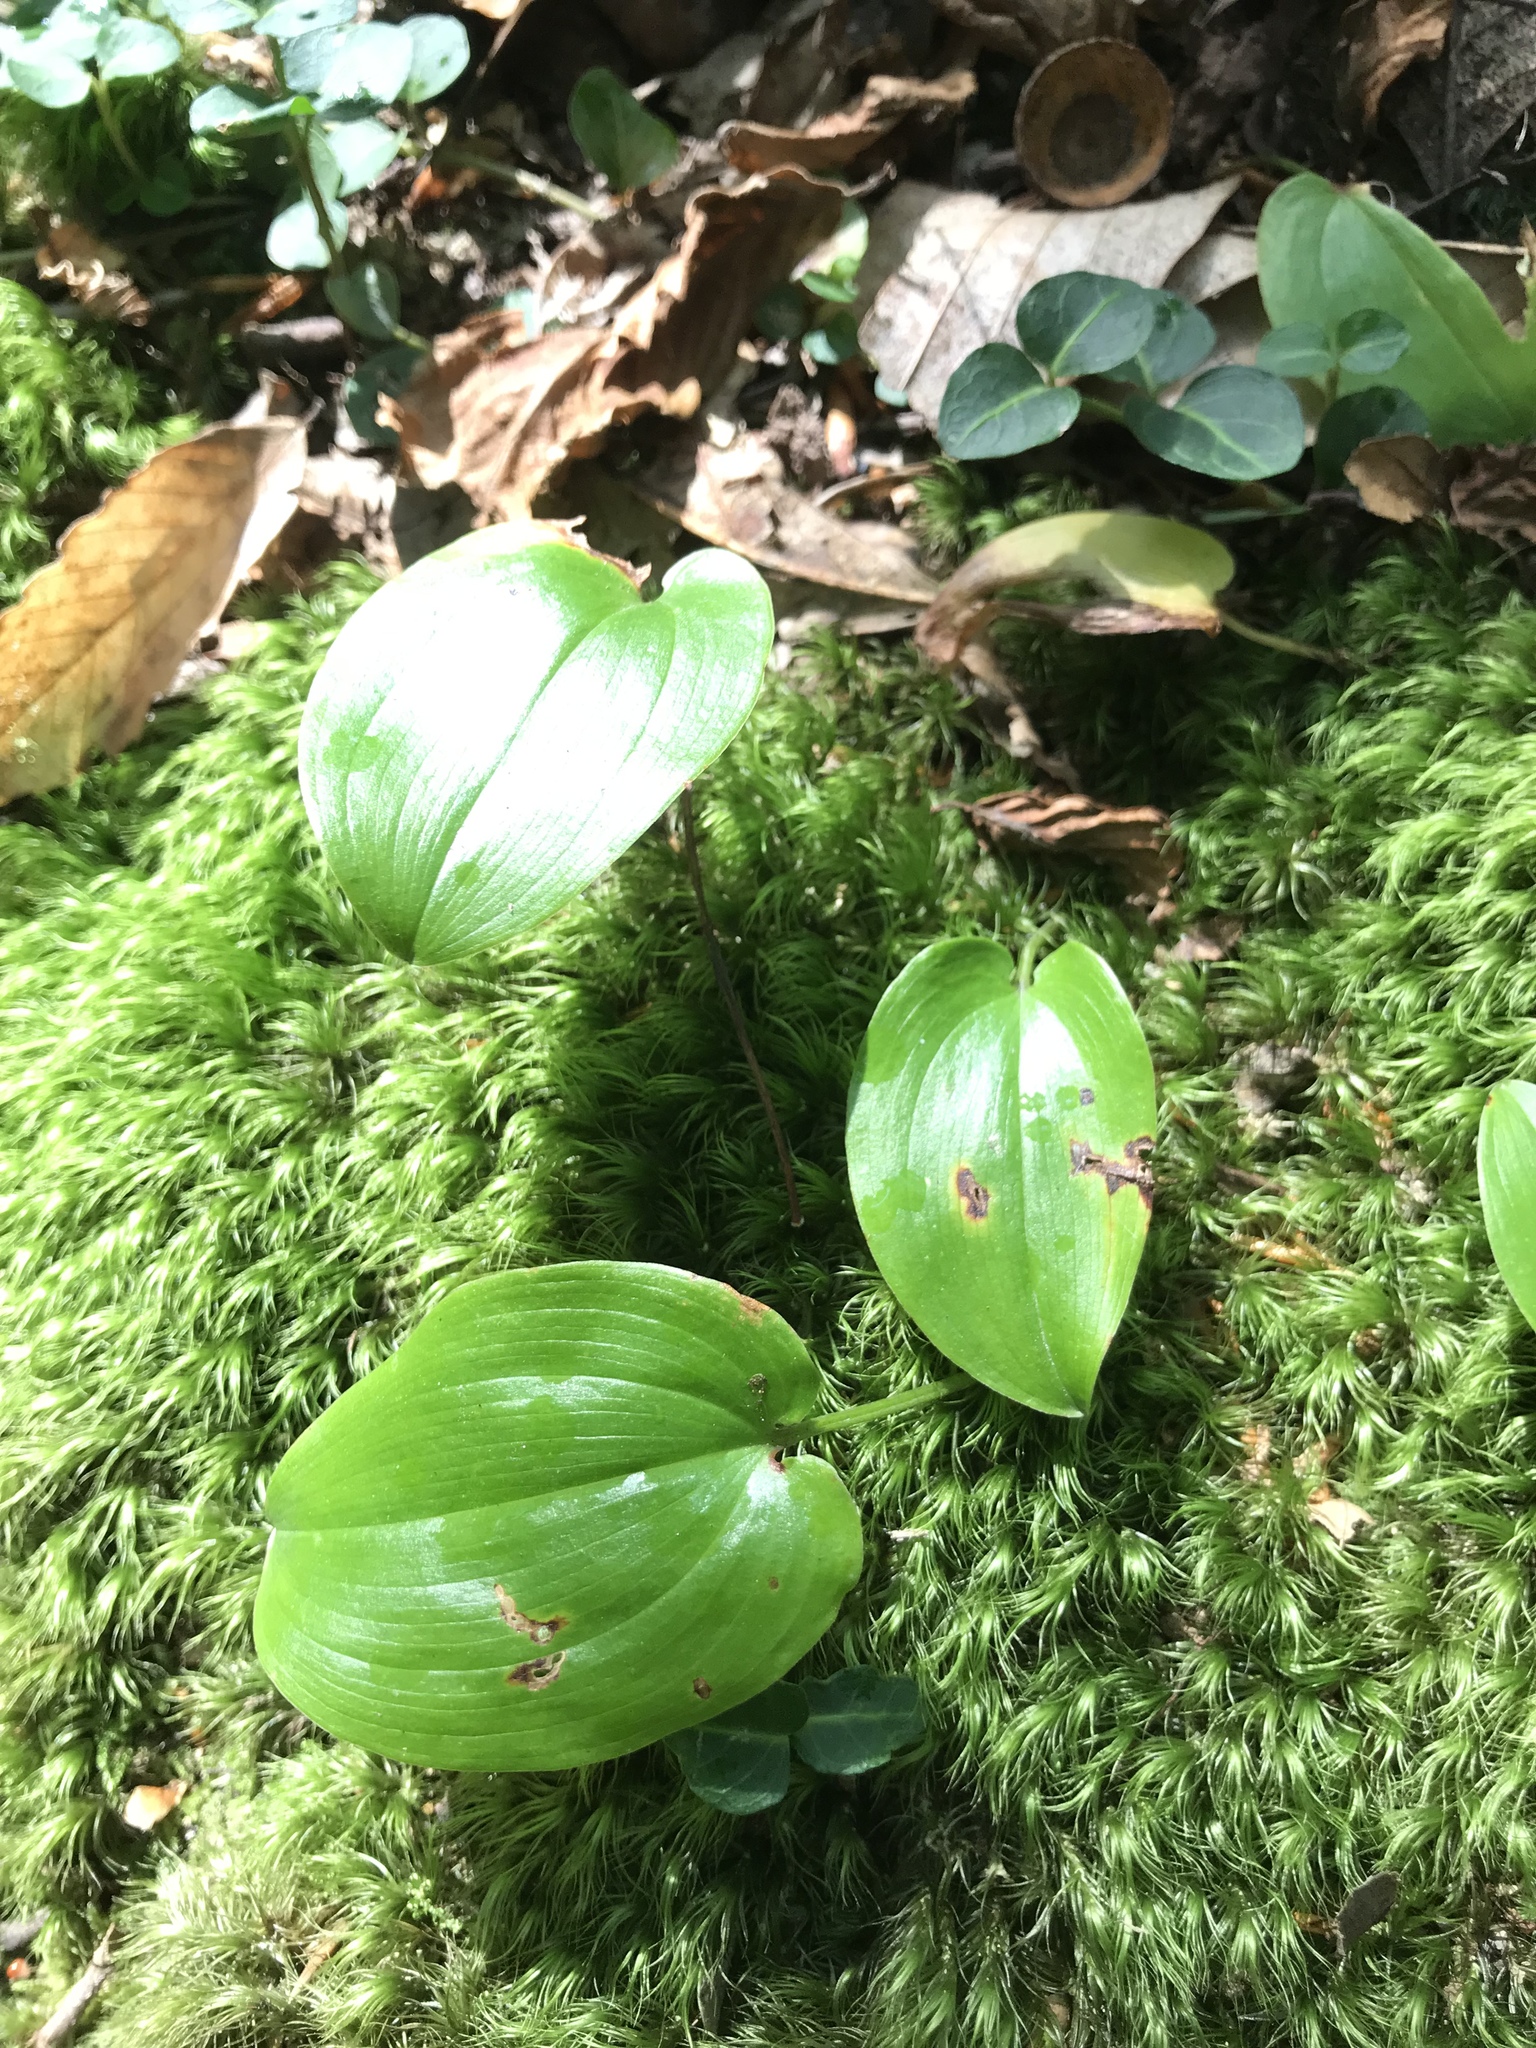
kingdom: Plantae
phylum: Tracheophyta
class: Liliopsida
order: Asparagales
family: Asparagaceae
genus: Maianthemum
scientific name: Maianthemum canadense
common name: False lily-of-the-valley
